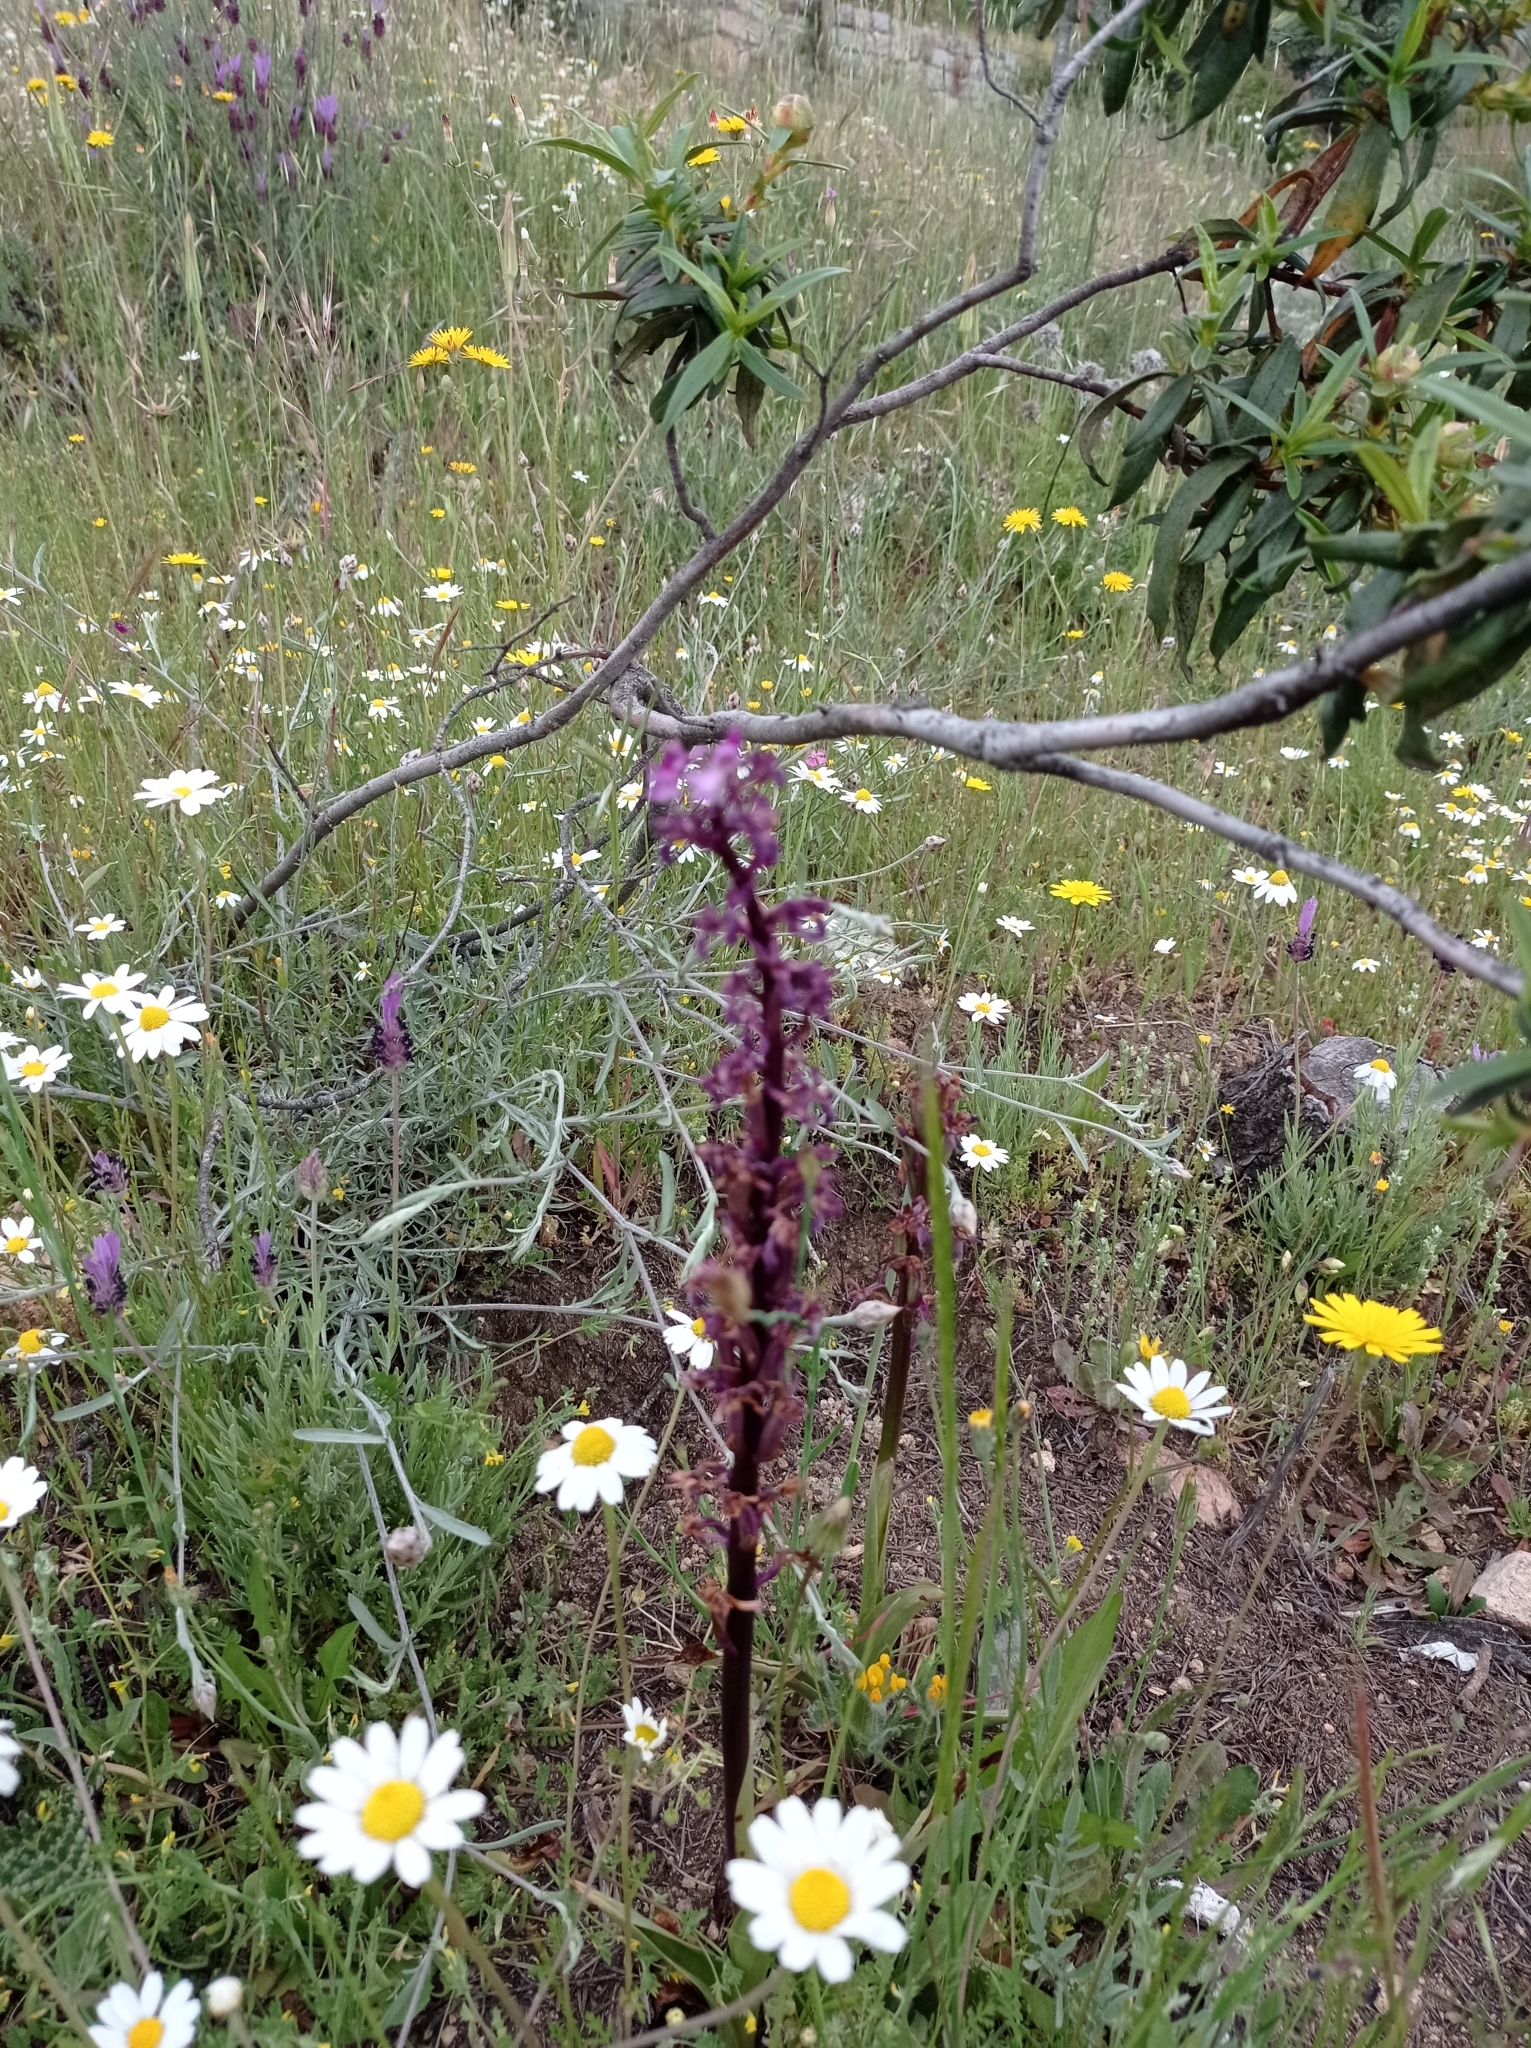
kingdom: Plantae
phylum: Tracheophyta
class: Liliopsida
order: Asparagales
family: Orchidaceae
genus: Orchis
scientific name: Orchis mascula
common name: Early-purple orchid
